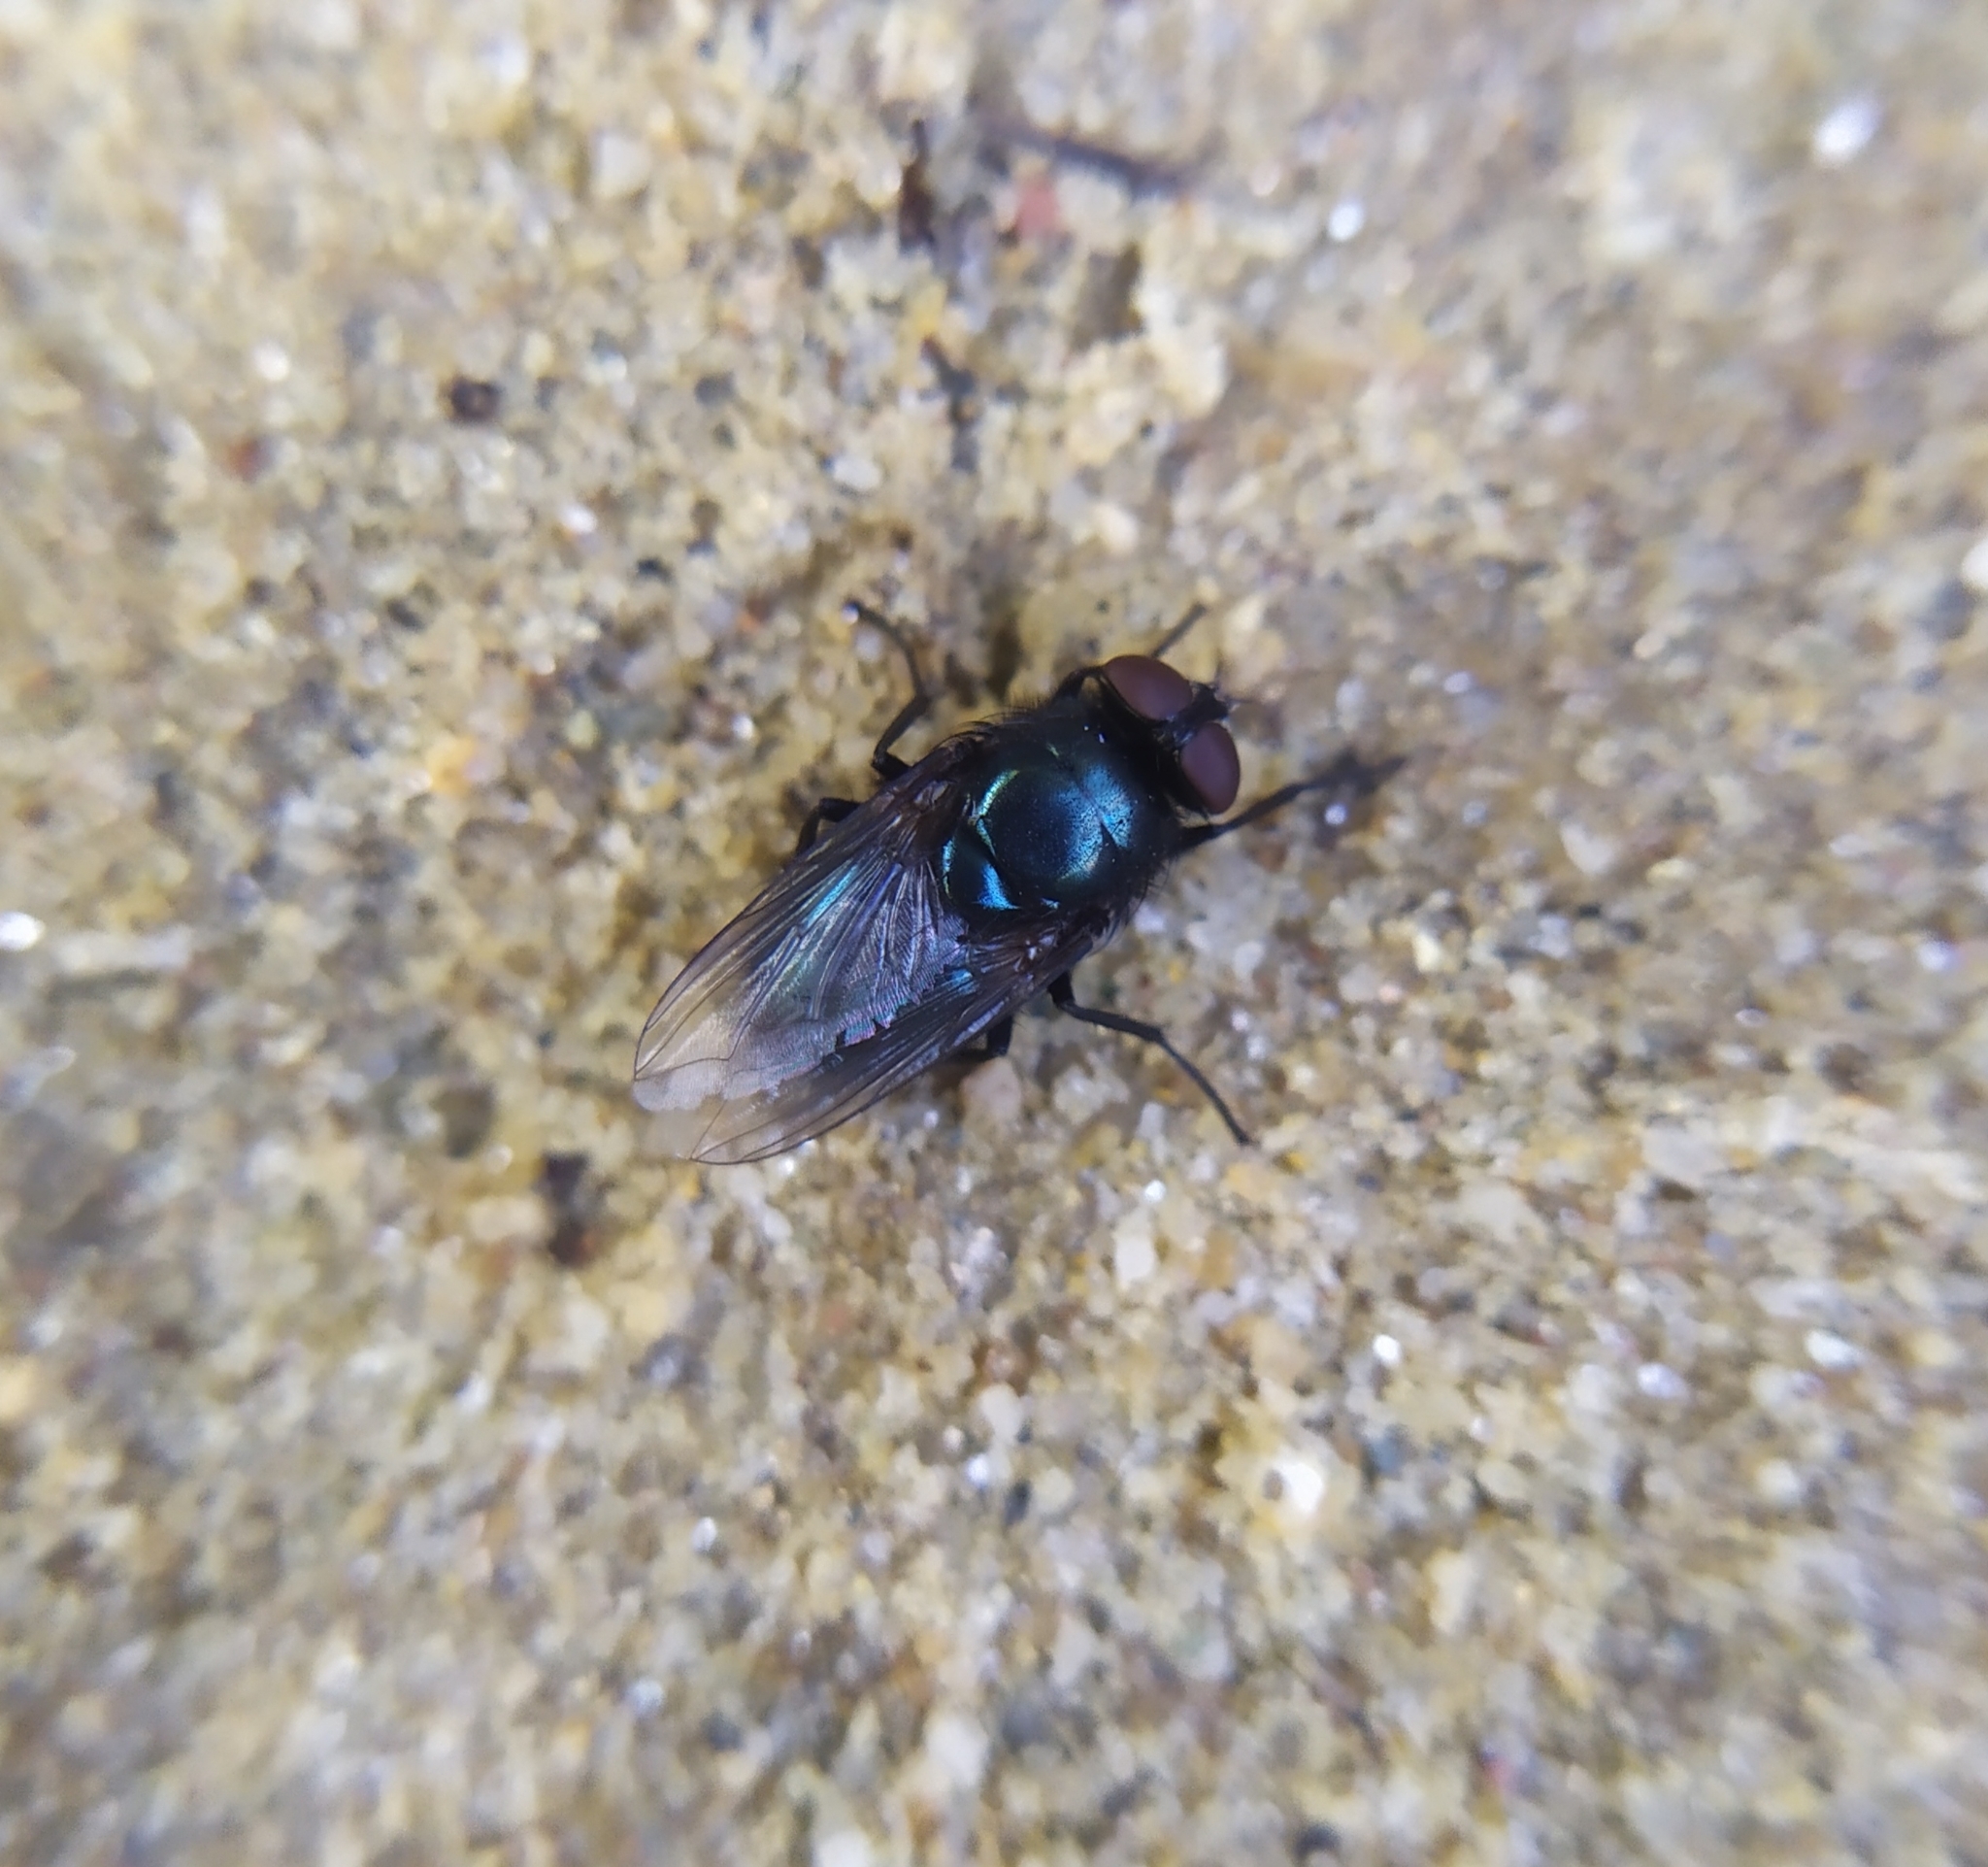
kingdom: Animalia
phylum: Arthropoda
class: Insecta
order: Diptera
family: Calliphoridae
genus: Protophormia
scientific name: Protophormia terraenovae
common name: Blackbottle
